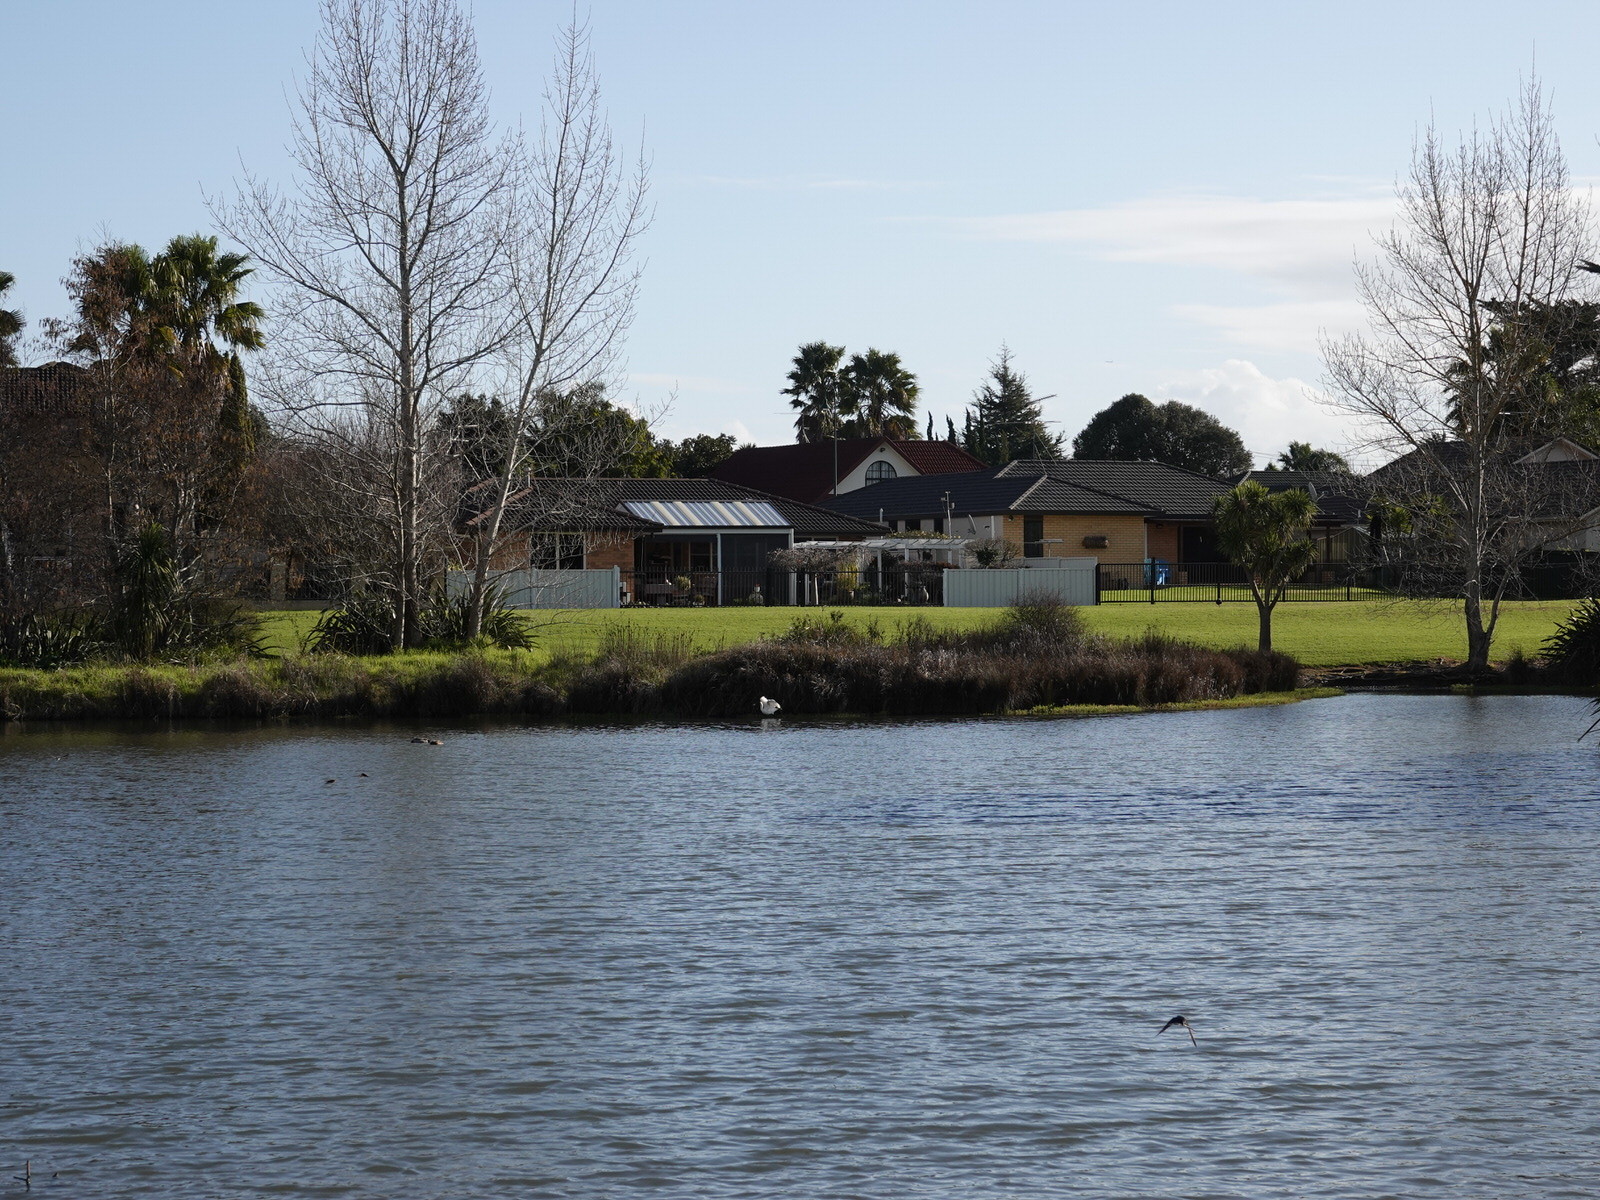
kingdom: Animalia
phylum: Chordata
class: Aves
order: Pelecaniformes
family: Threskiornithidae
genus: Platalea
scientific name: Platalea regia
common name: Royal spoonbill
